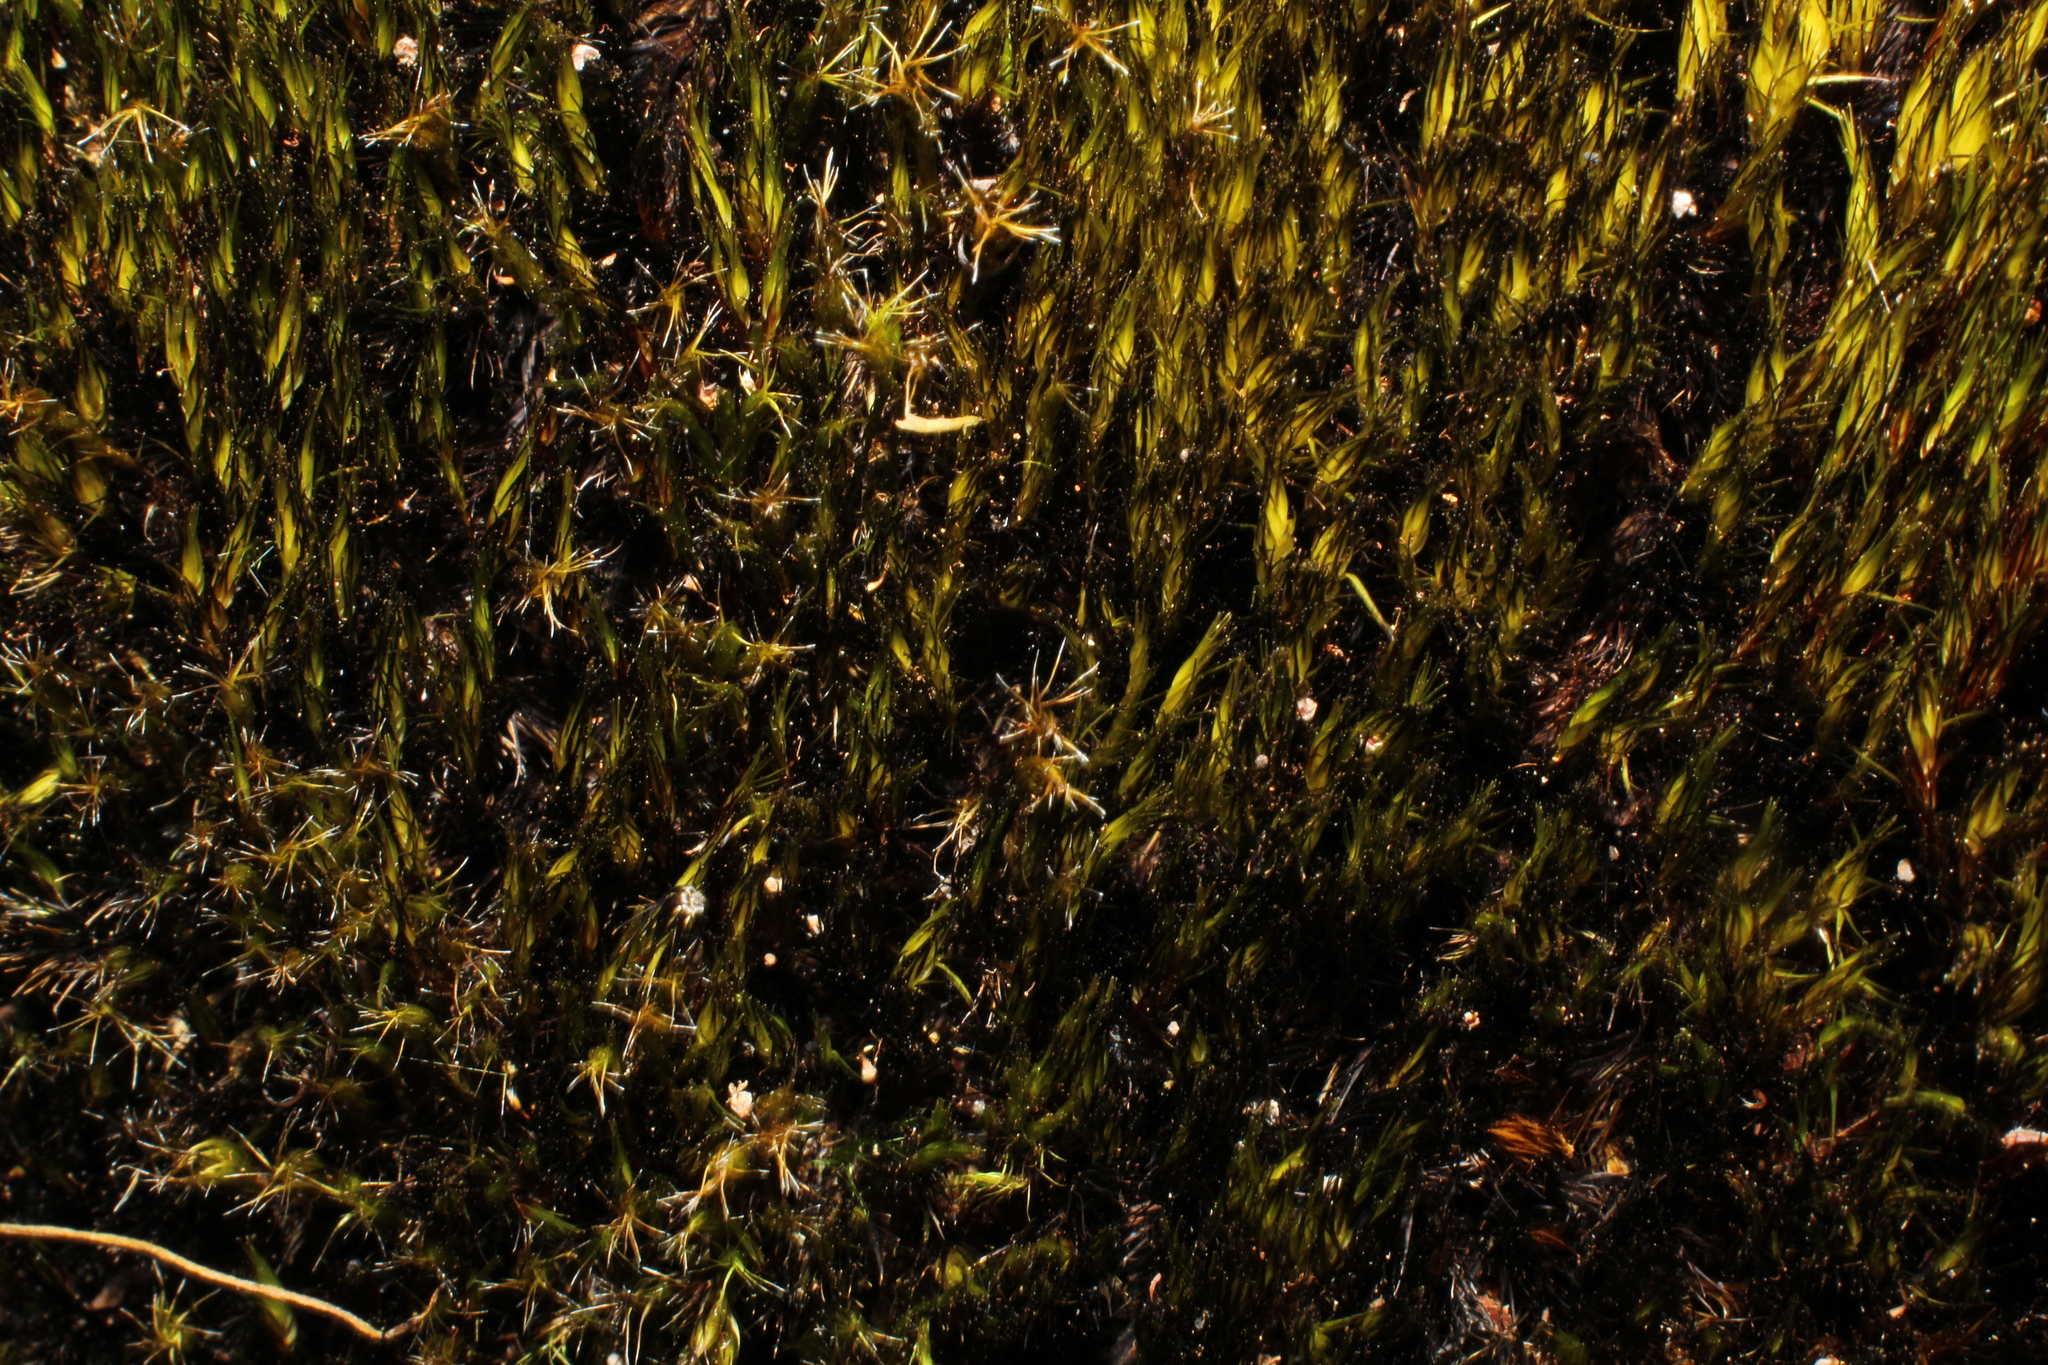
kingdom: Plantae
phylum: Bryophyta
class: Bryopsida
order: Dicranales
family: Leucobryaceae
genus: Campylopus
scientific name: Campylopus introflexus
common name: Heath star moss
